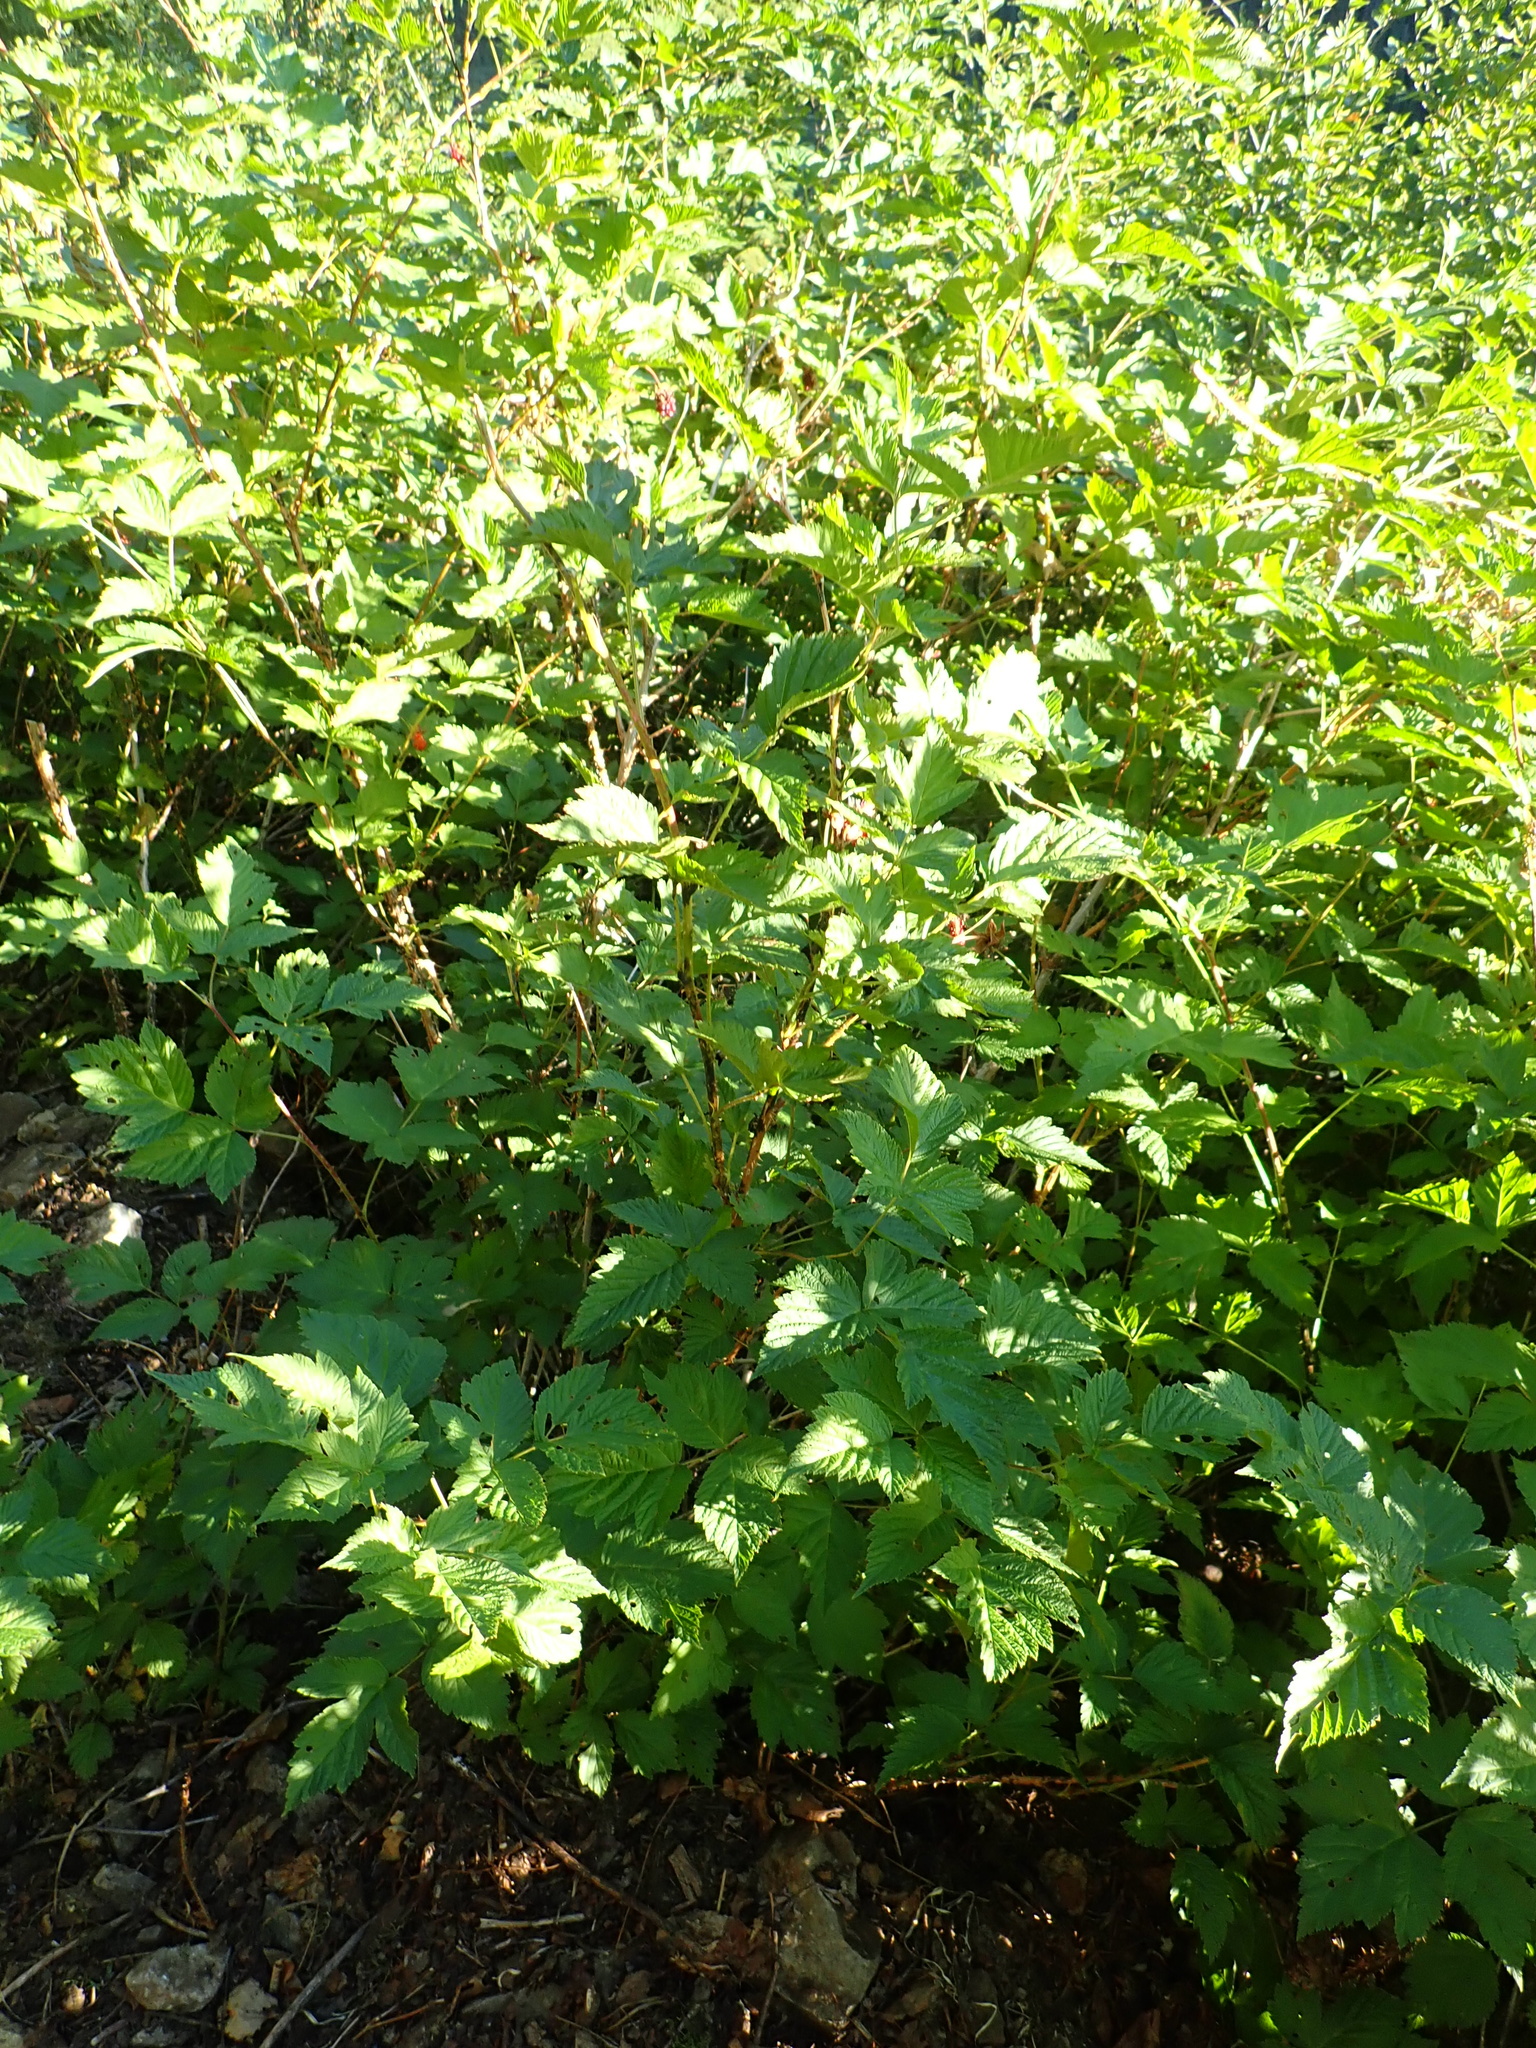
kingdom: Plantae
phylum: Tracheophyta
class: Magnoliopsida
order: Rosales
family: Rosaceae
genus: Rubus
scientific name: Rubus spectabilis
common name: Salmonberry
